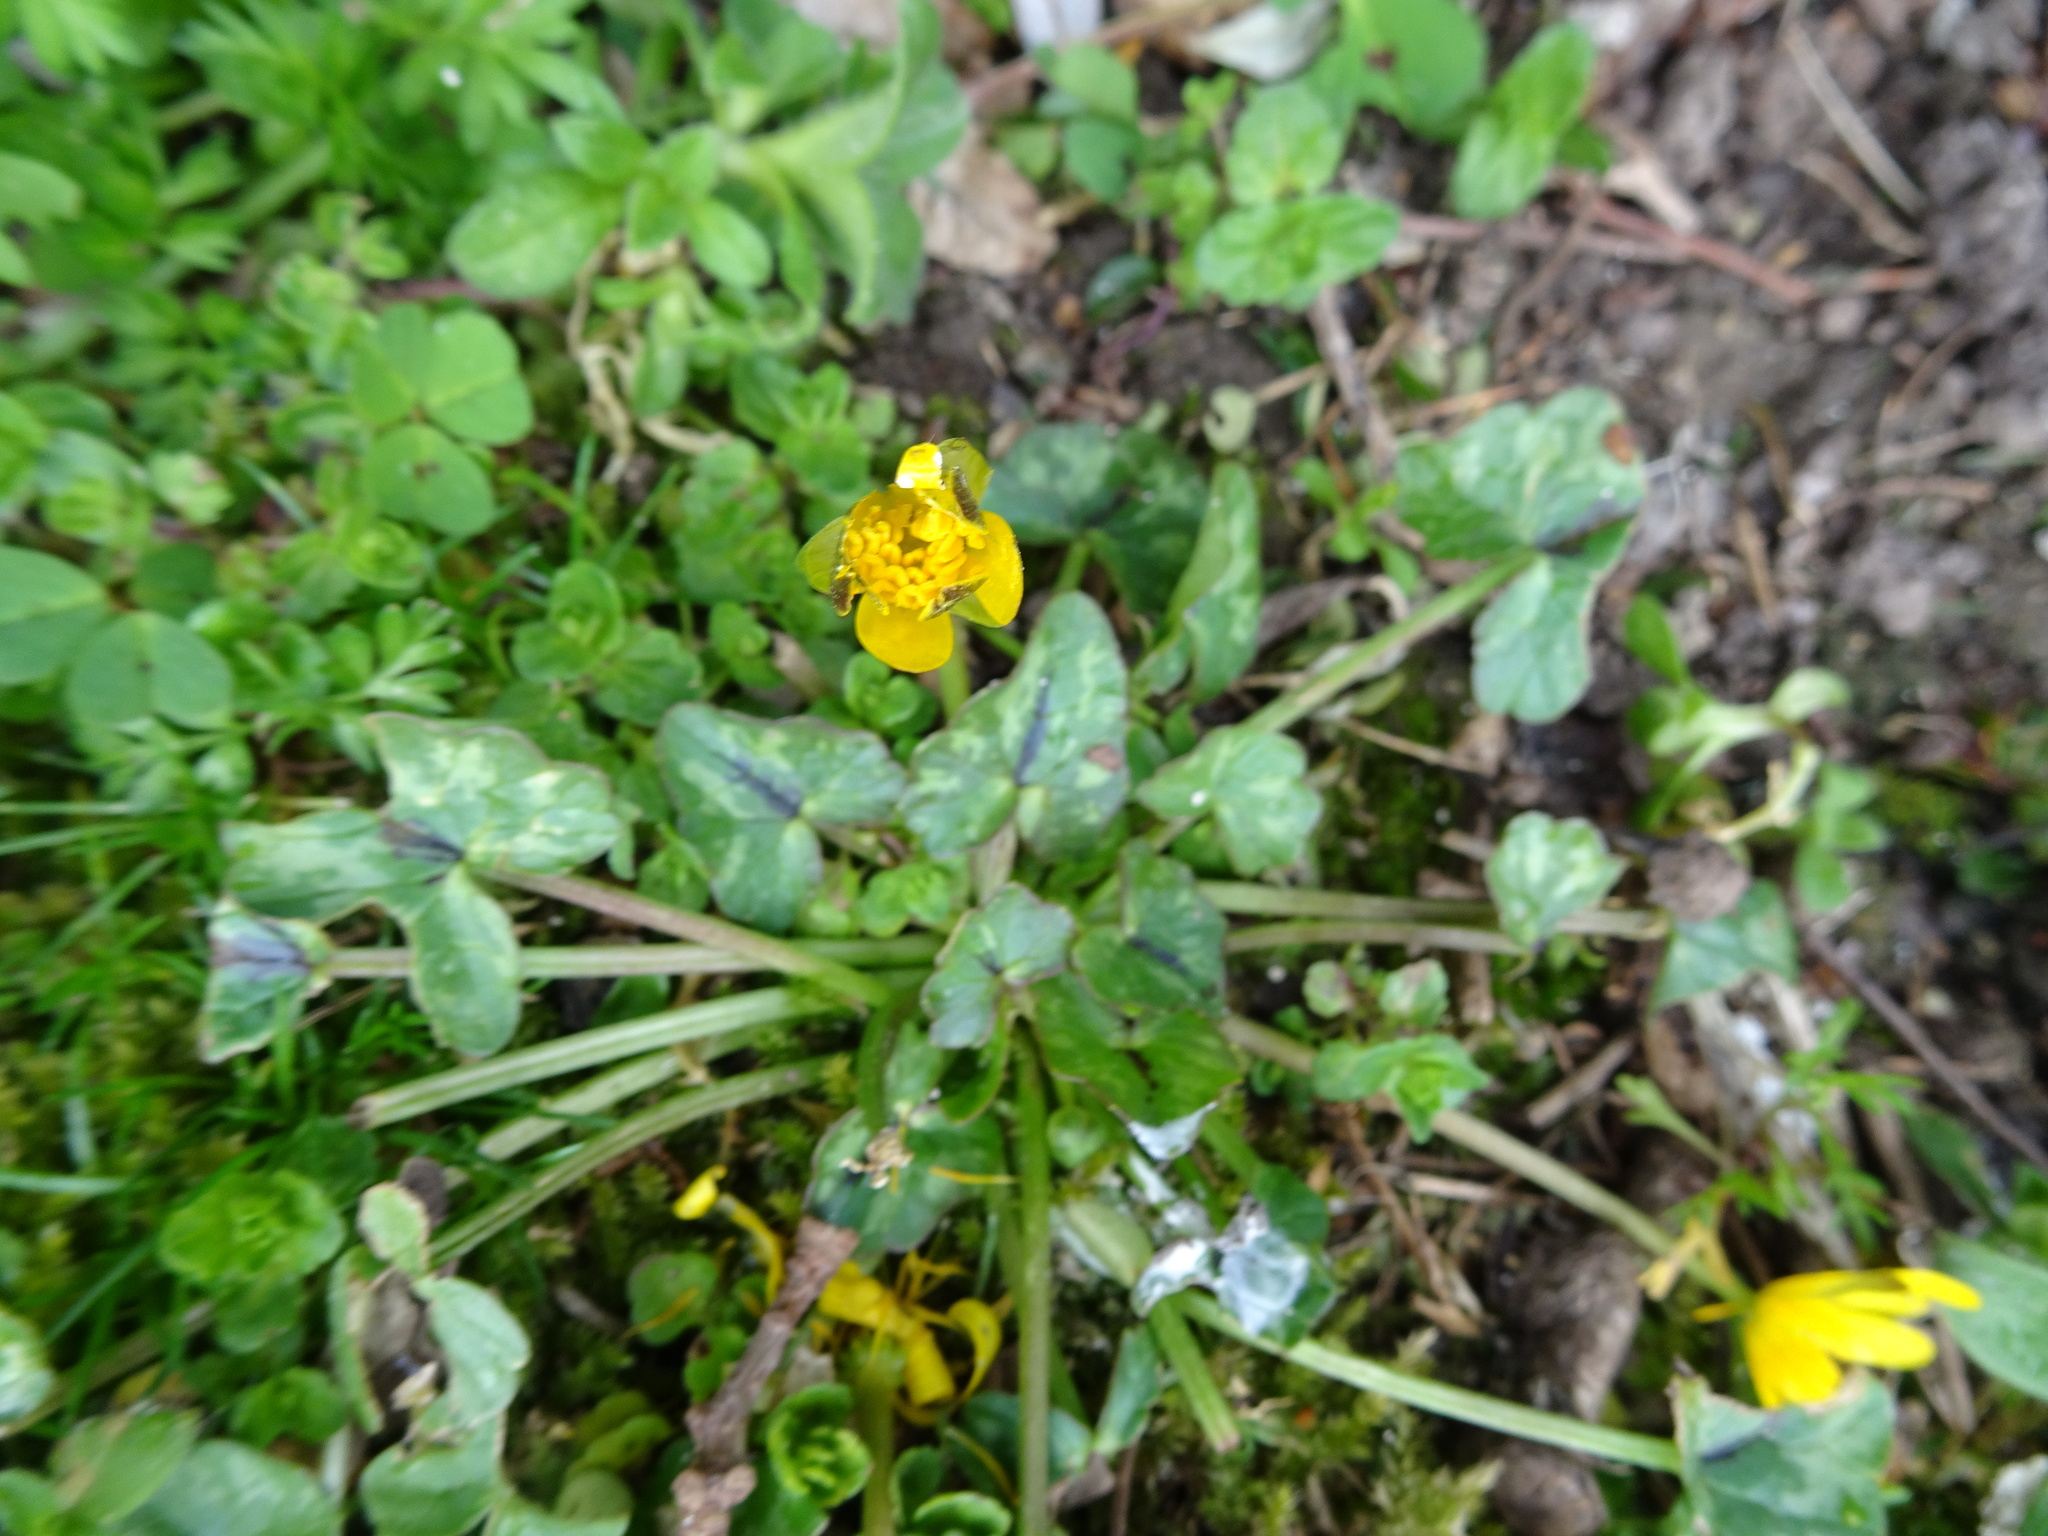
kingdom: Plantae
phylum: Tracheophyta
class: Magnoliopsida
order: Ranunculales
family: Ranunculaceae
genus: Ficaria
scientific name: Ficaria verna
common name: Lesser celandine
